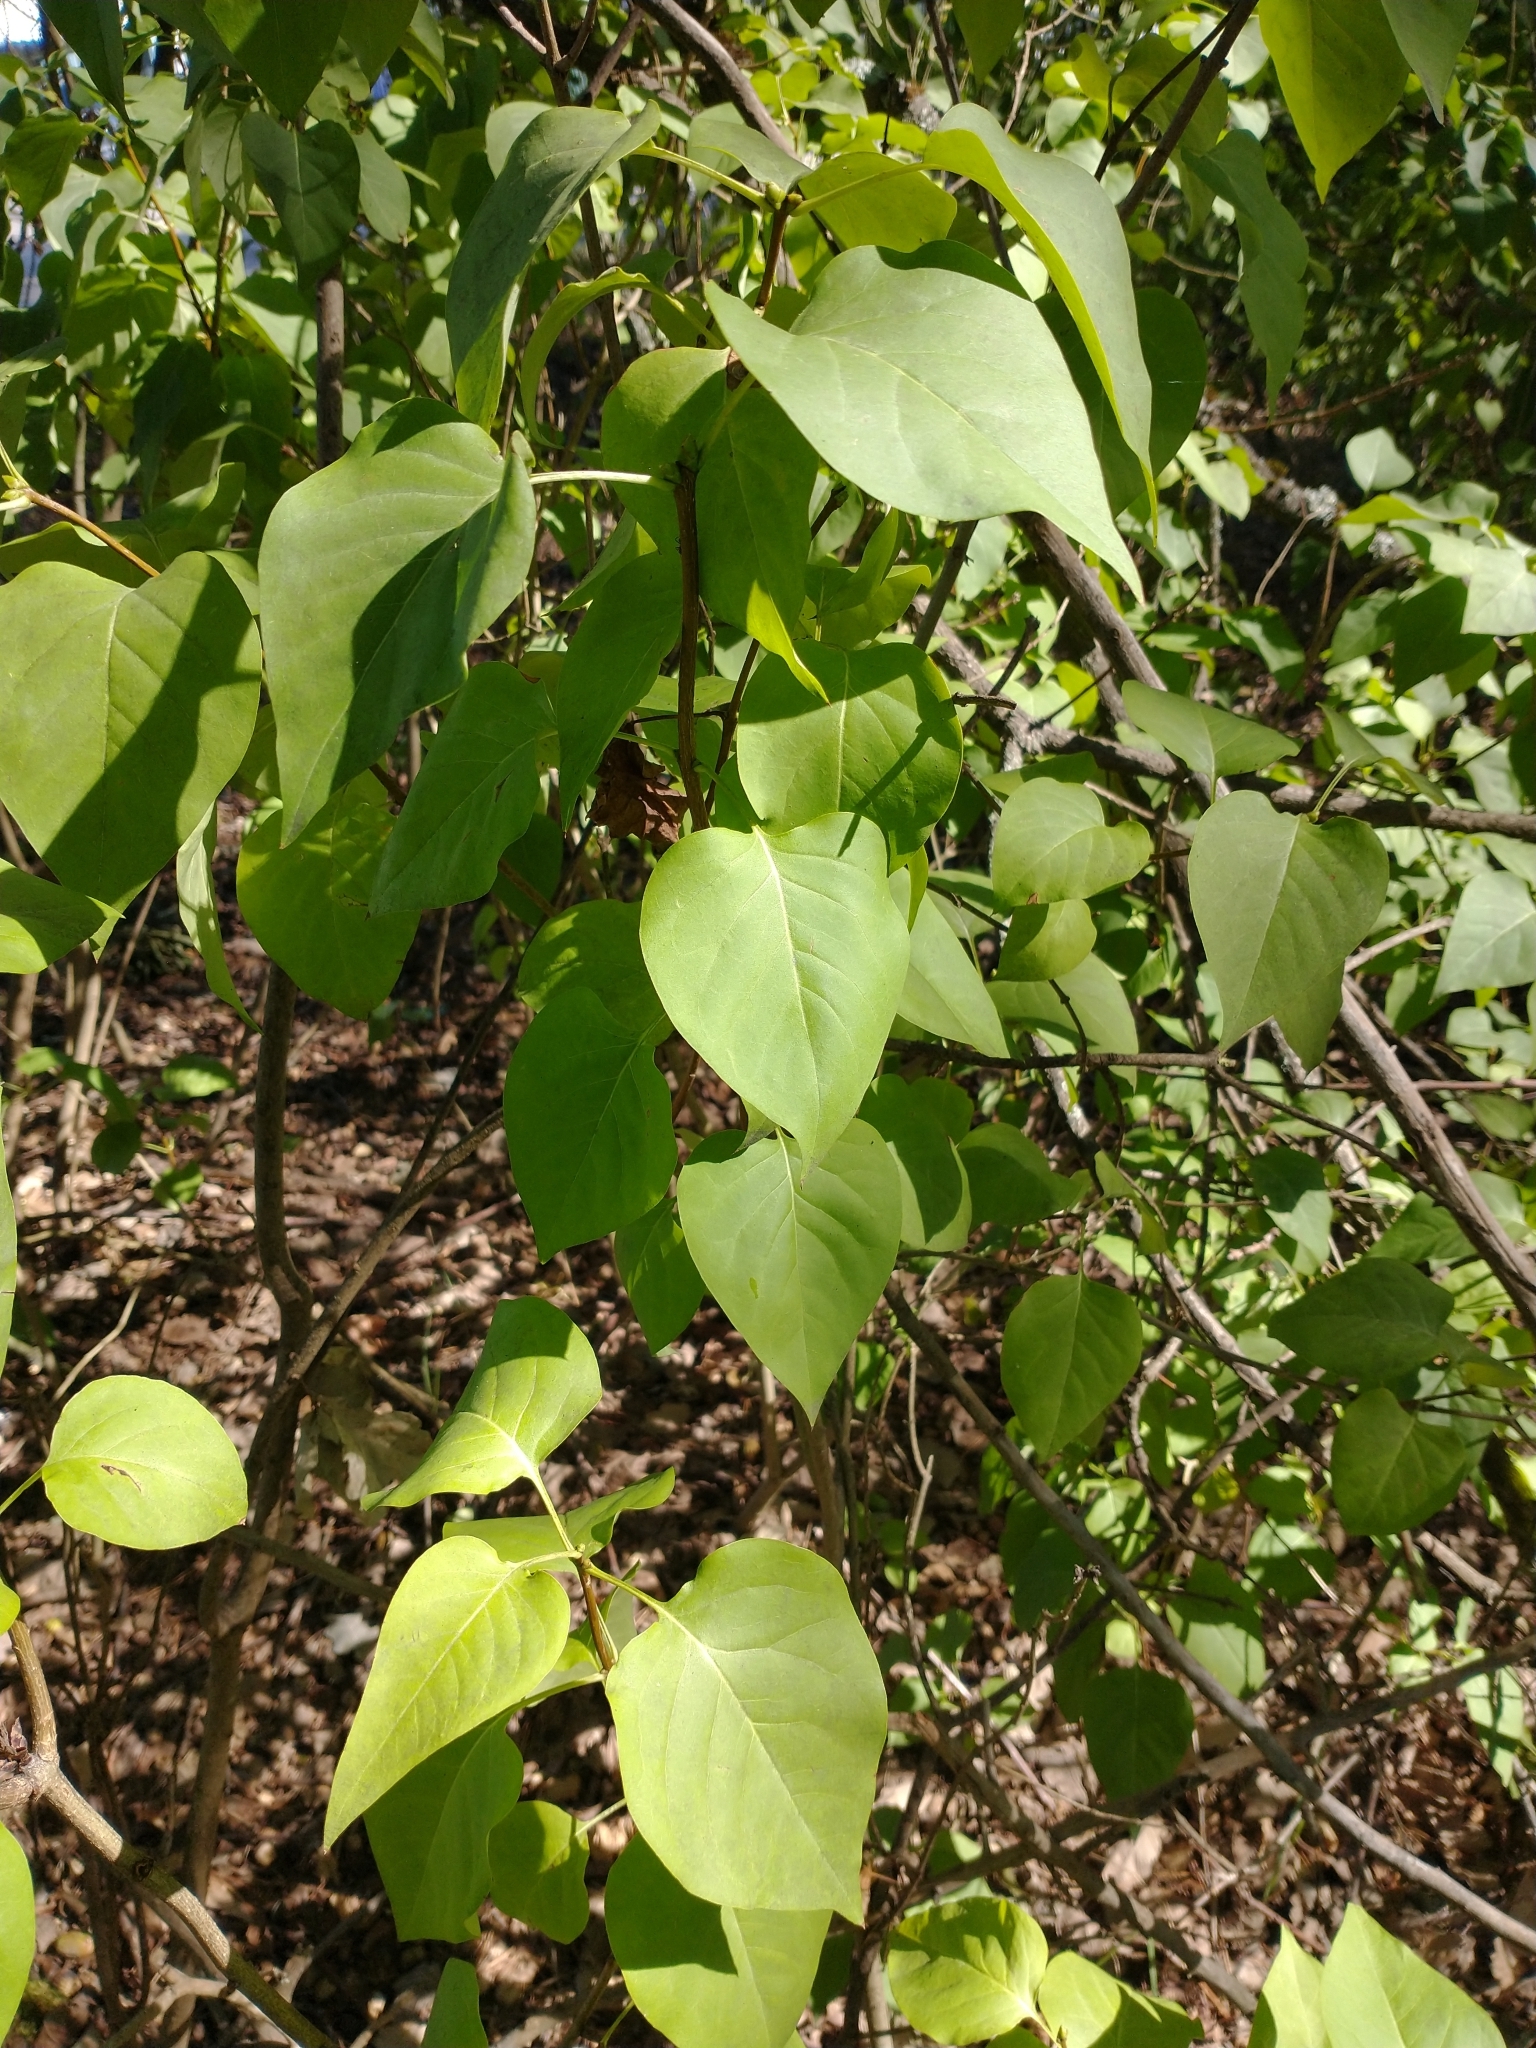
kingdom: Plantae
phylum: Tracheophyta
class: Magnoliopsida
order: Lamiales
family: Oleaceae
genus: Syringa
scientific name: Syringa vulgaris
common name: Common lilac
